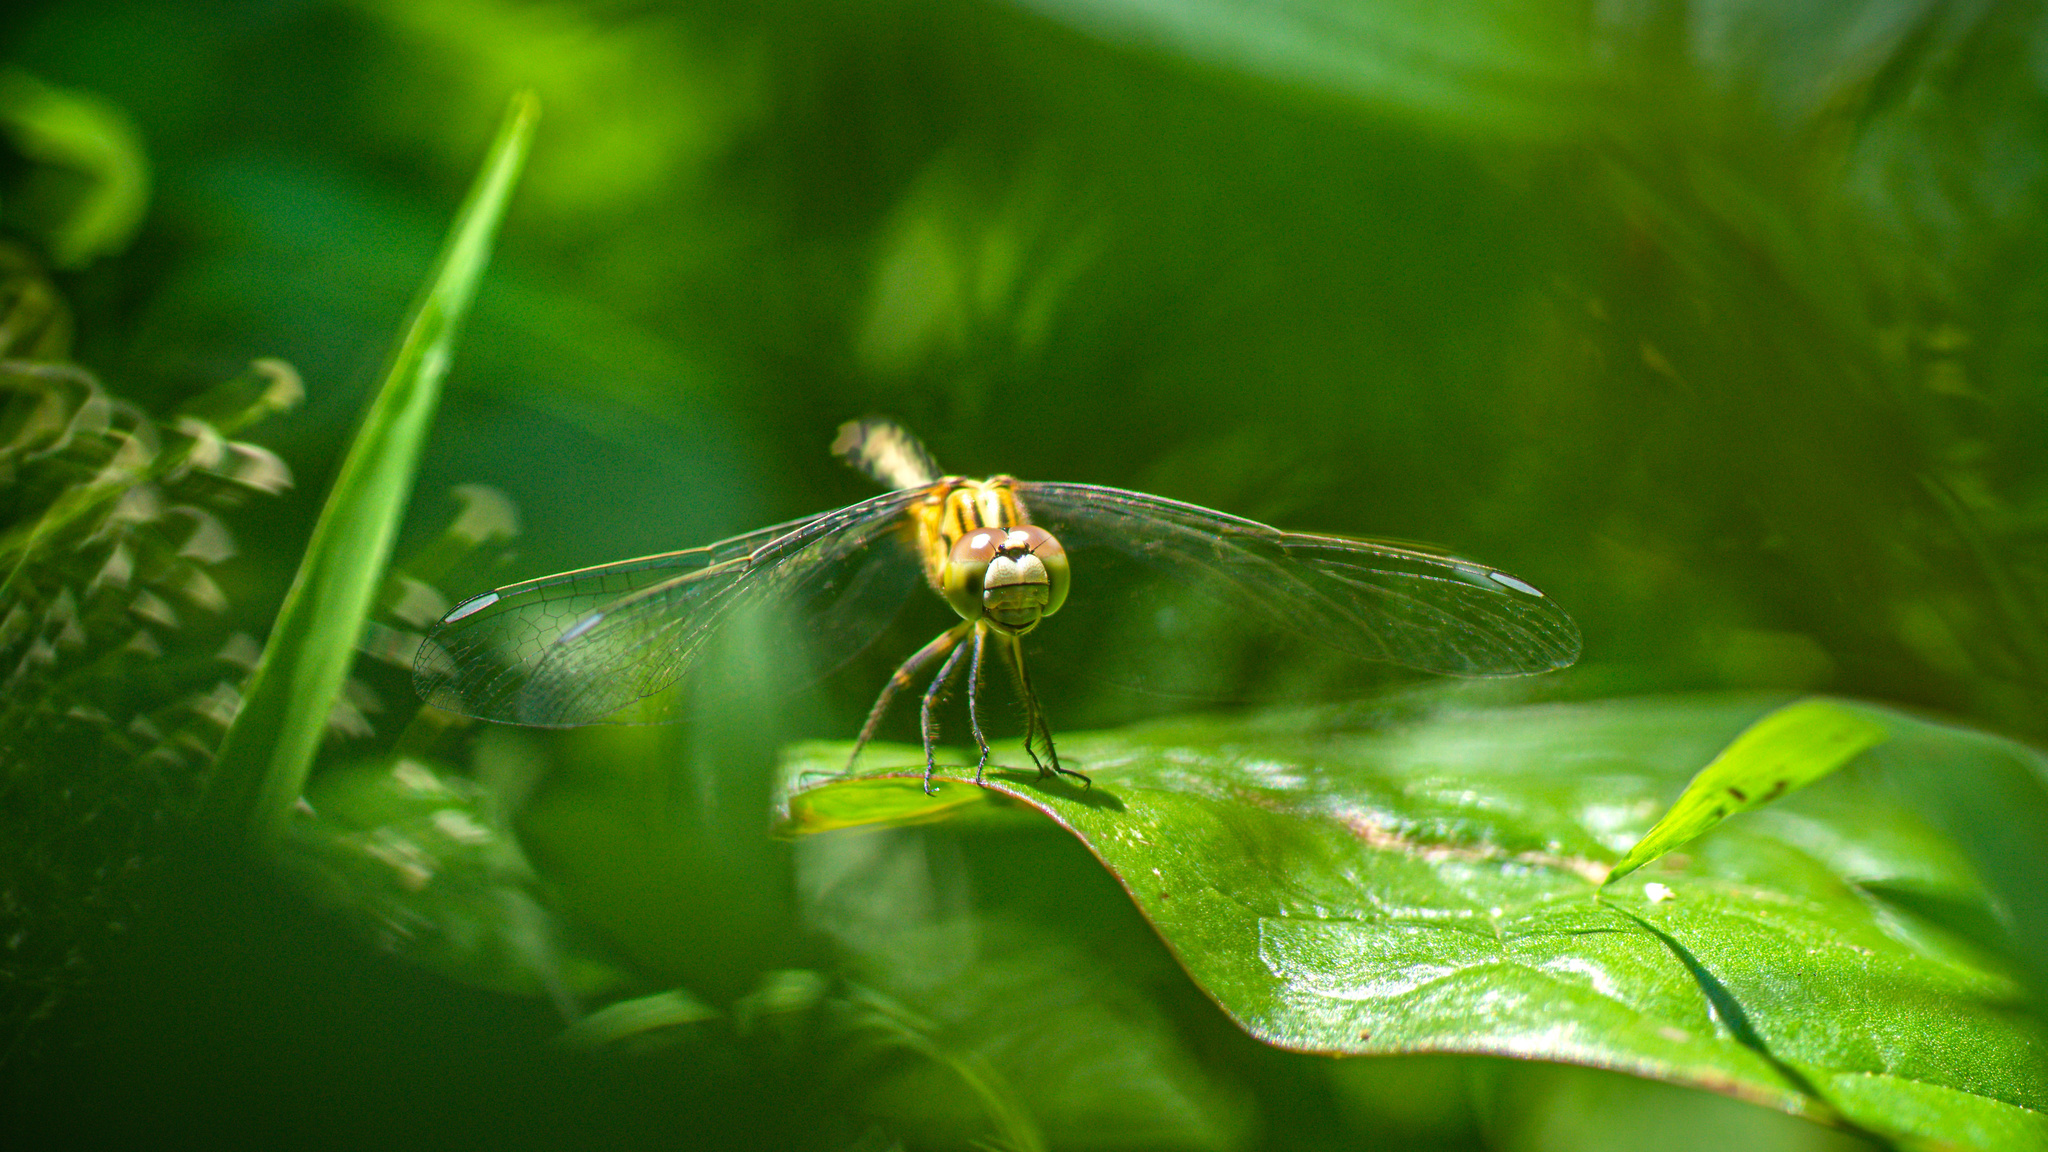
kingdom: Animalia
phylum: Arthropoda
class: Insecta
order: Odonata
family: Libellulidae
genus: Diplacodes
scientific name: Diplacodes trivialis
